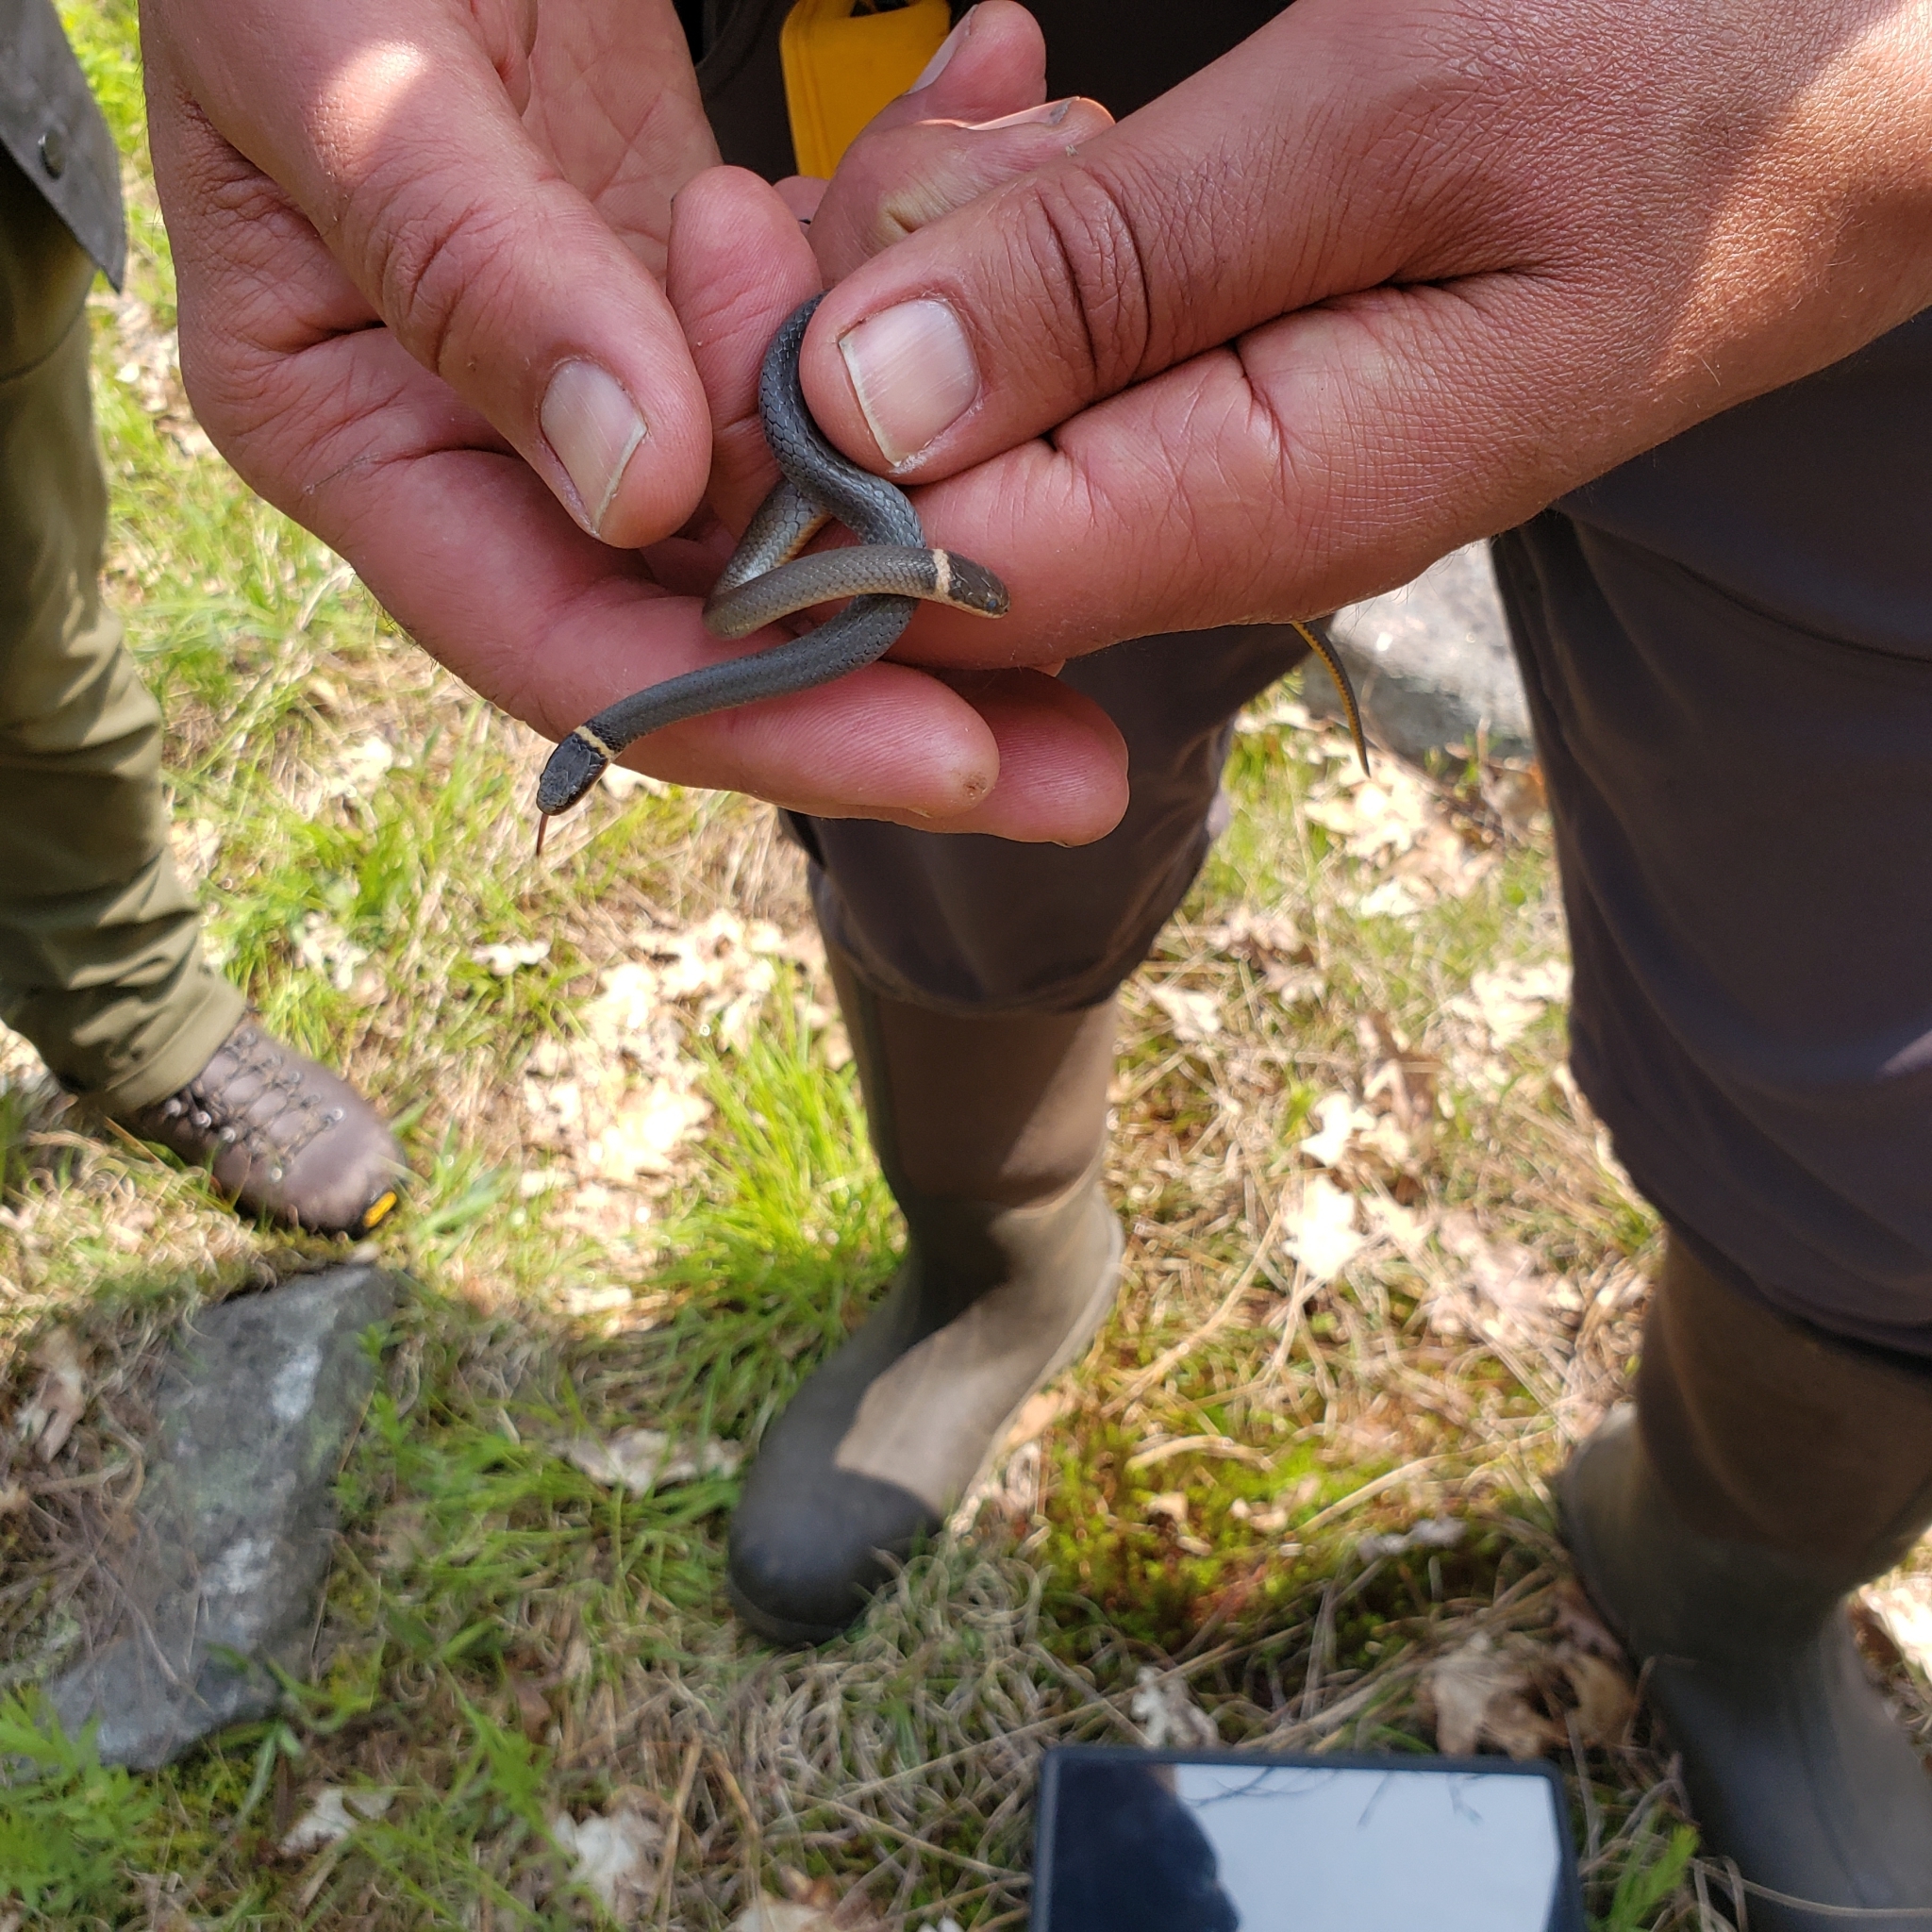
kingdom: Animalia
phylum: Chordata
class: Squamata
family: Colubridae
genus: Diadophis
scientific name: Diadophis punctatus
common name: Ringneck snake
